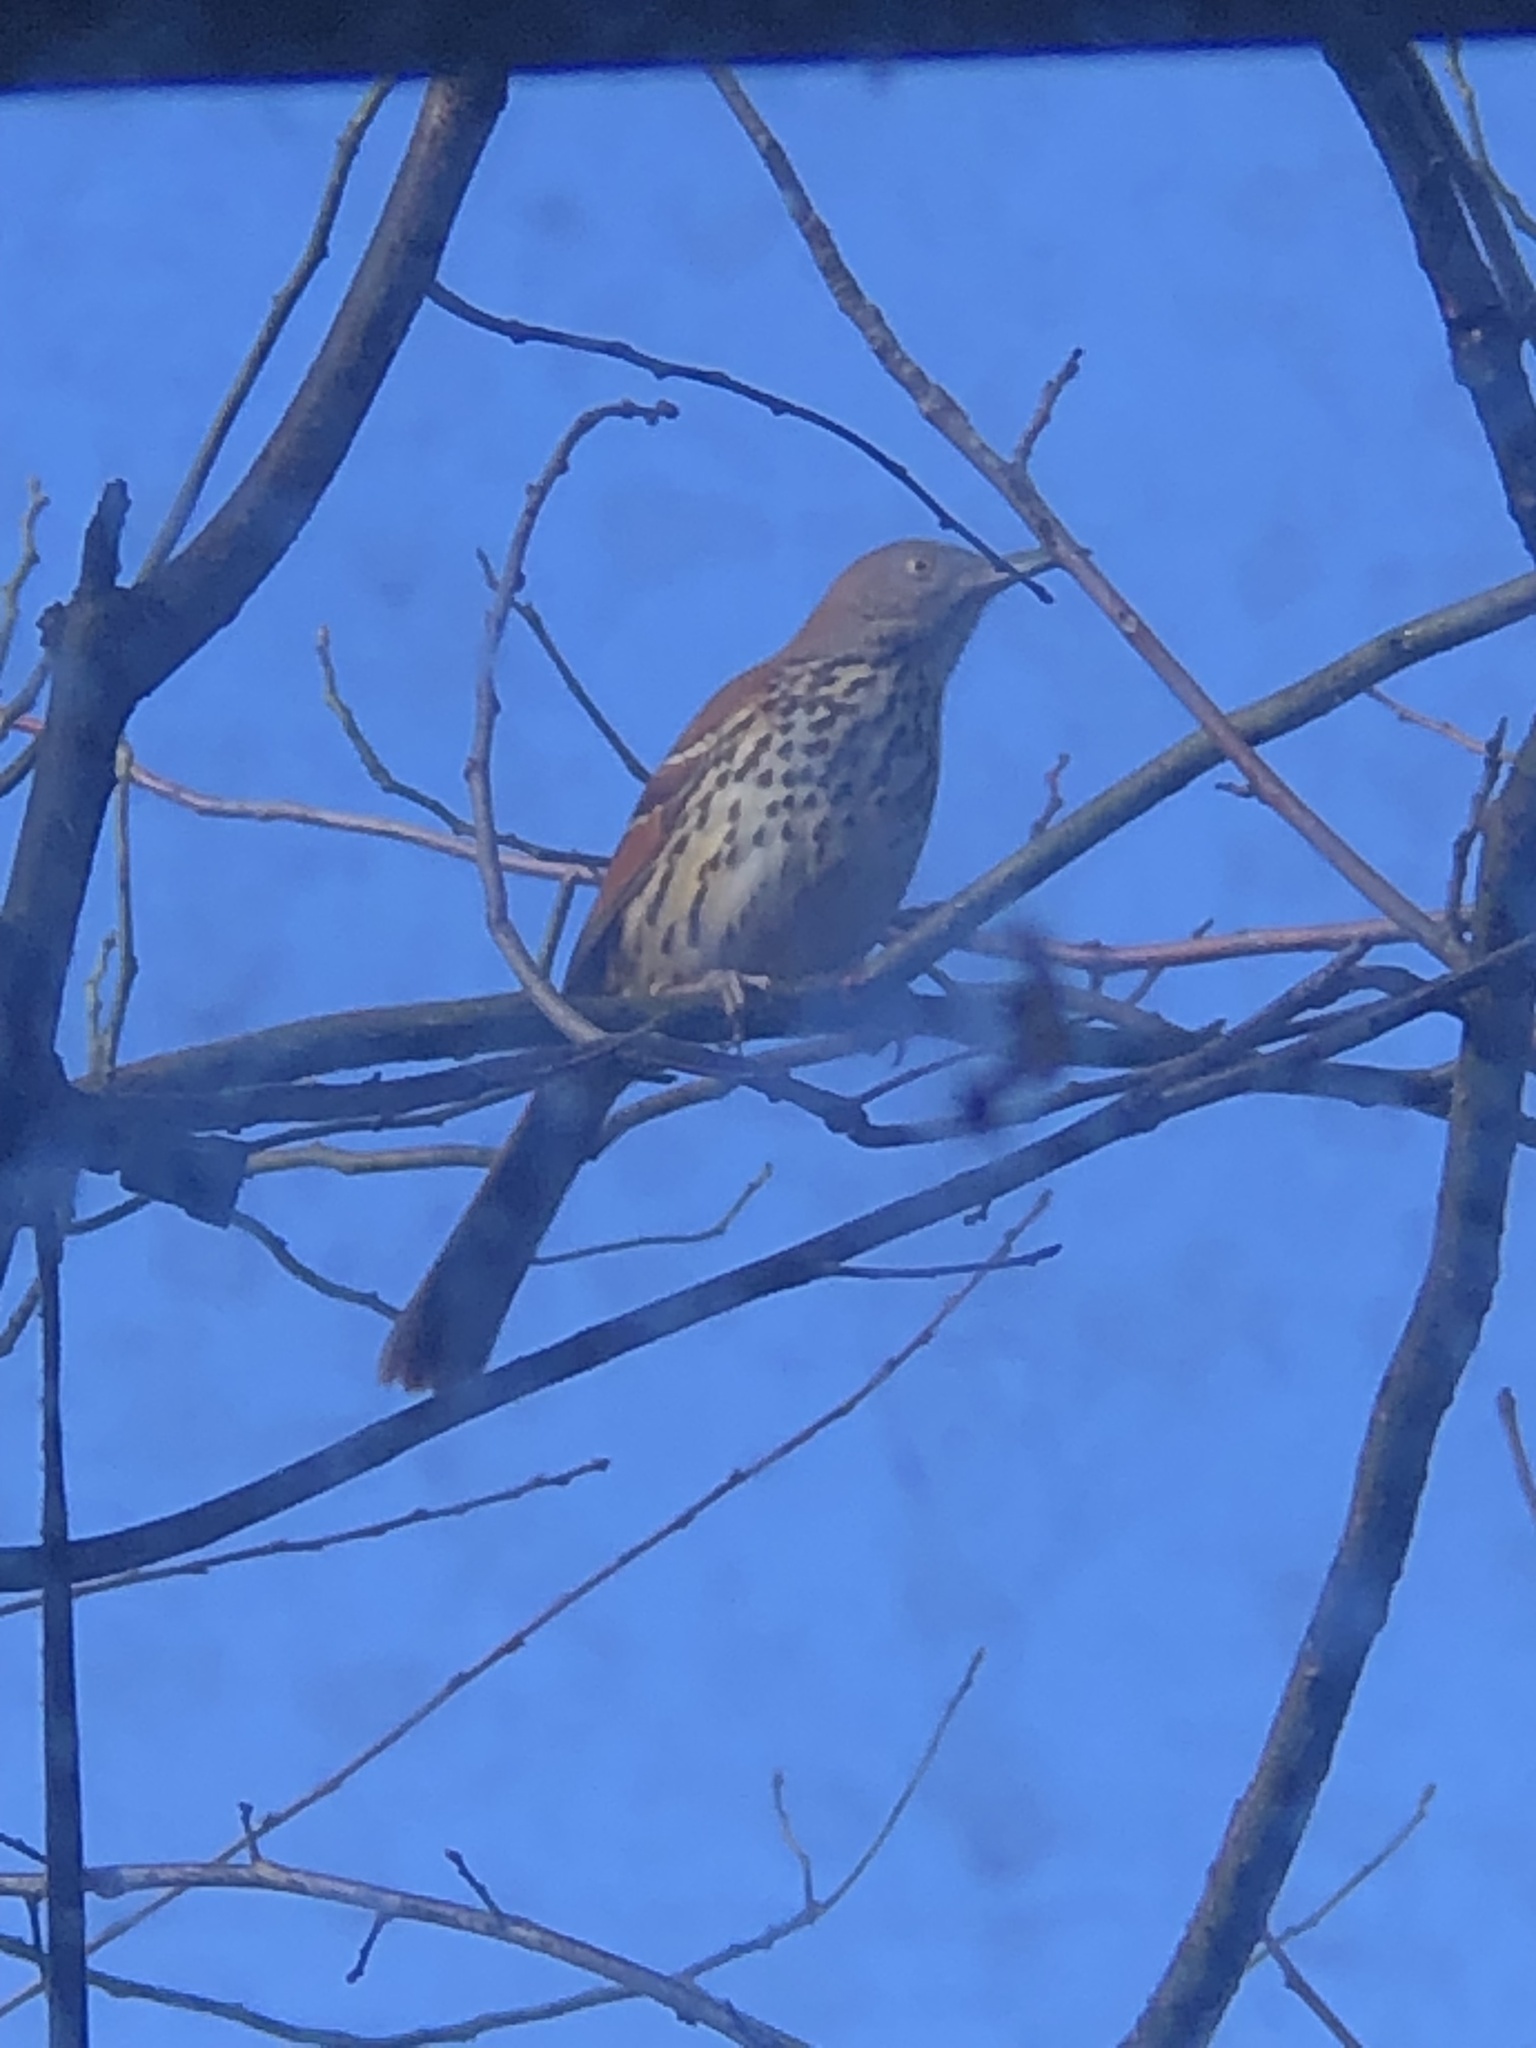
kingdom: Animalia
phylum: Chordata
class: Aves
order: Passeriformes
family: Mimidae
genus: Toxostoma
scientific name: Toxostoma rufum
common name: Brown thrasher
